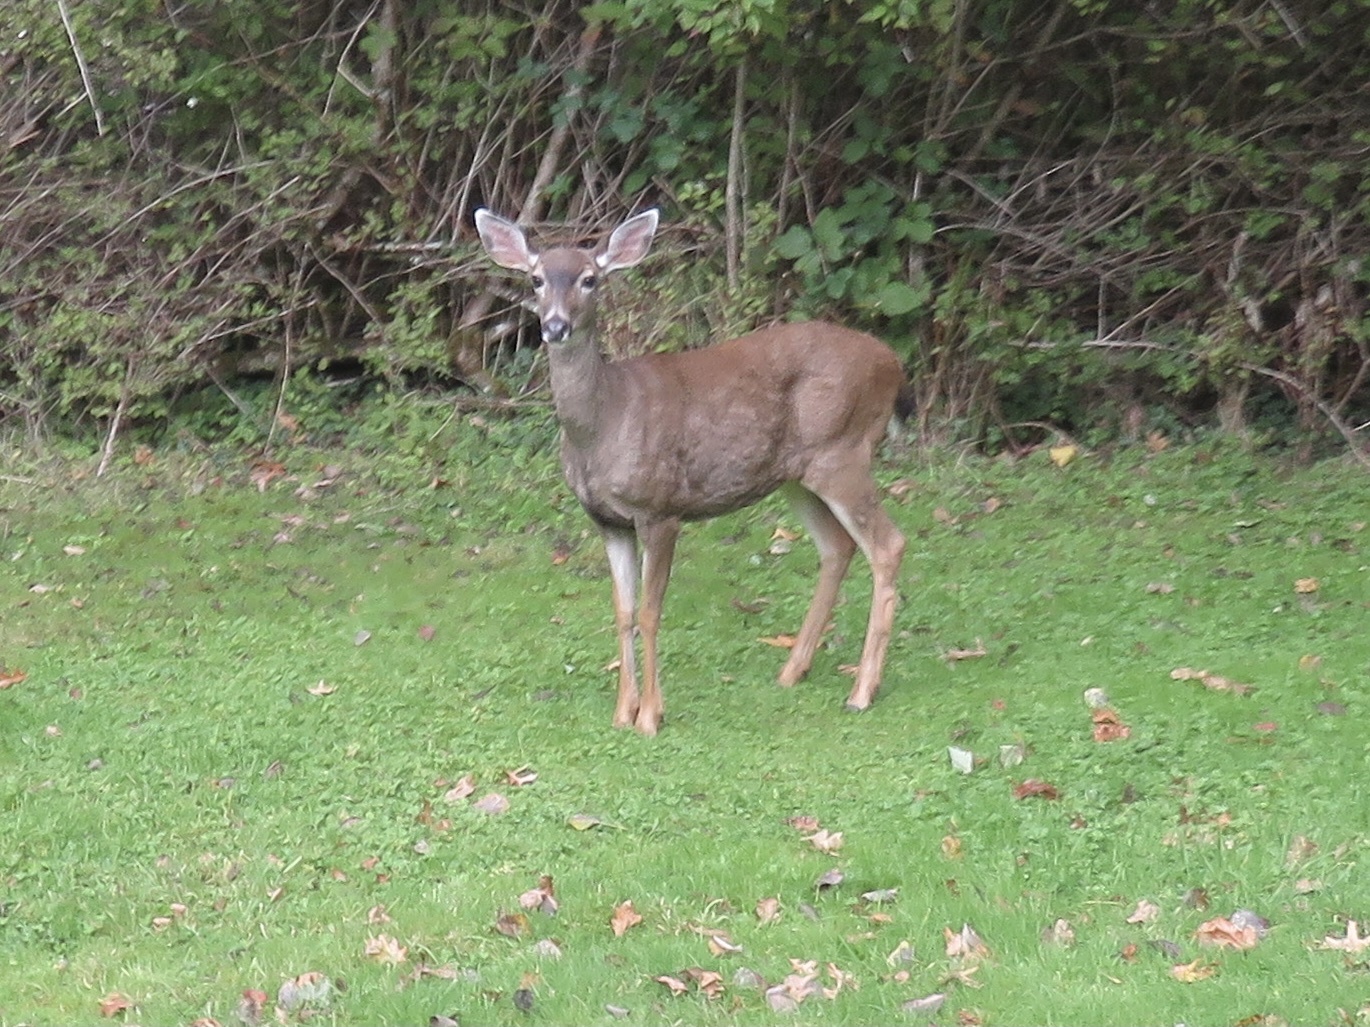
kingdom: Animalia
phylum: Chordata
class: Mammalia
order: Artiodactyla
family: Cervidae
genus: Odocoileus
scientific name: Odocoileus hemionus
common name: Mule deer
